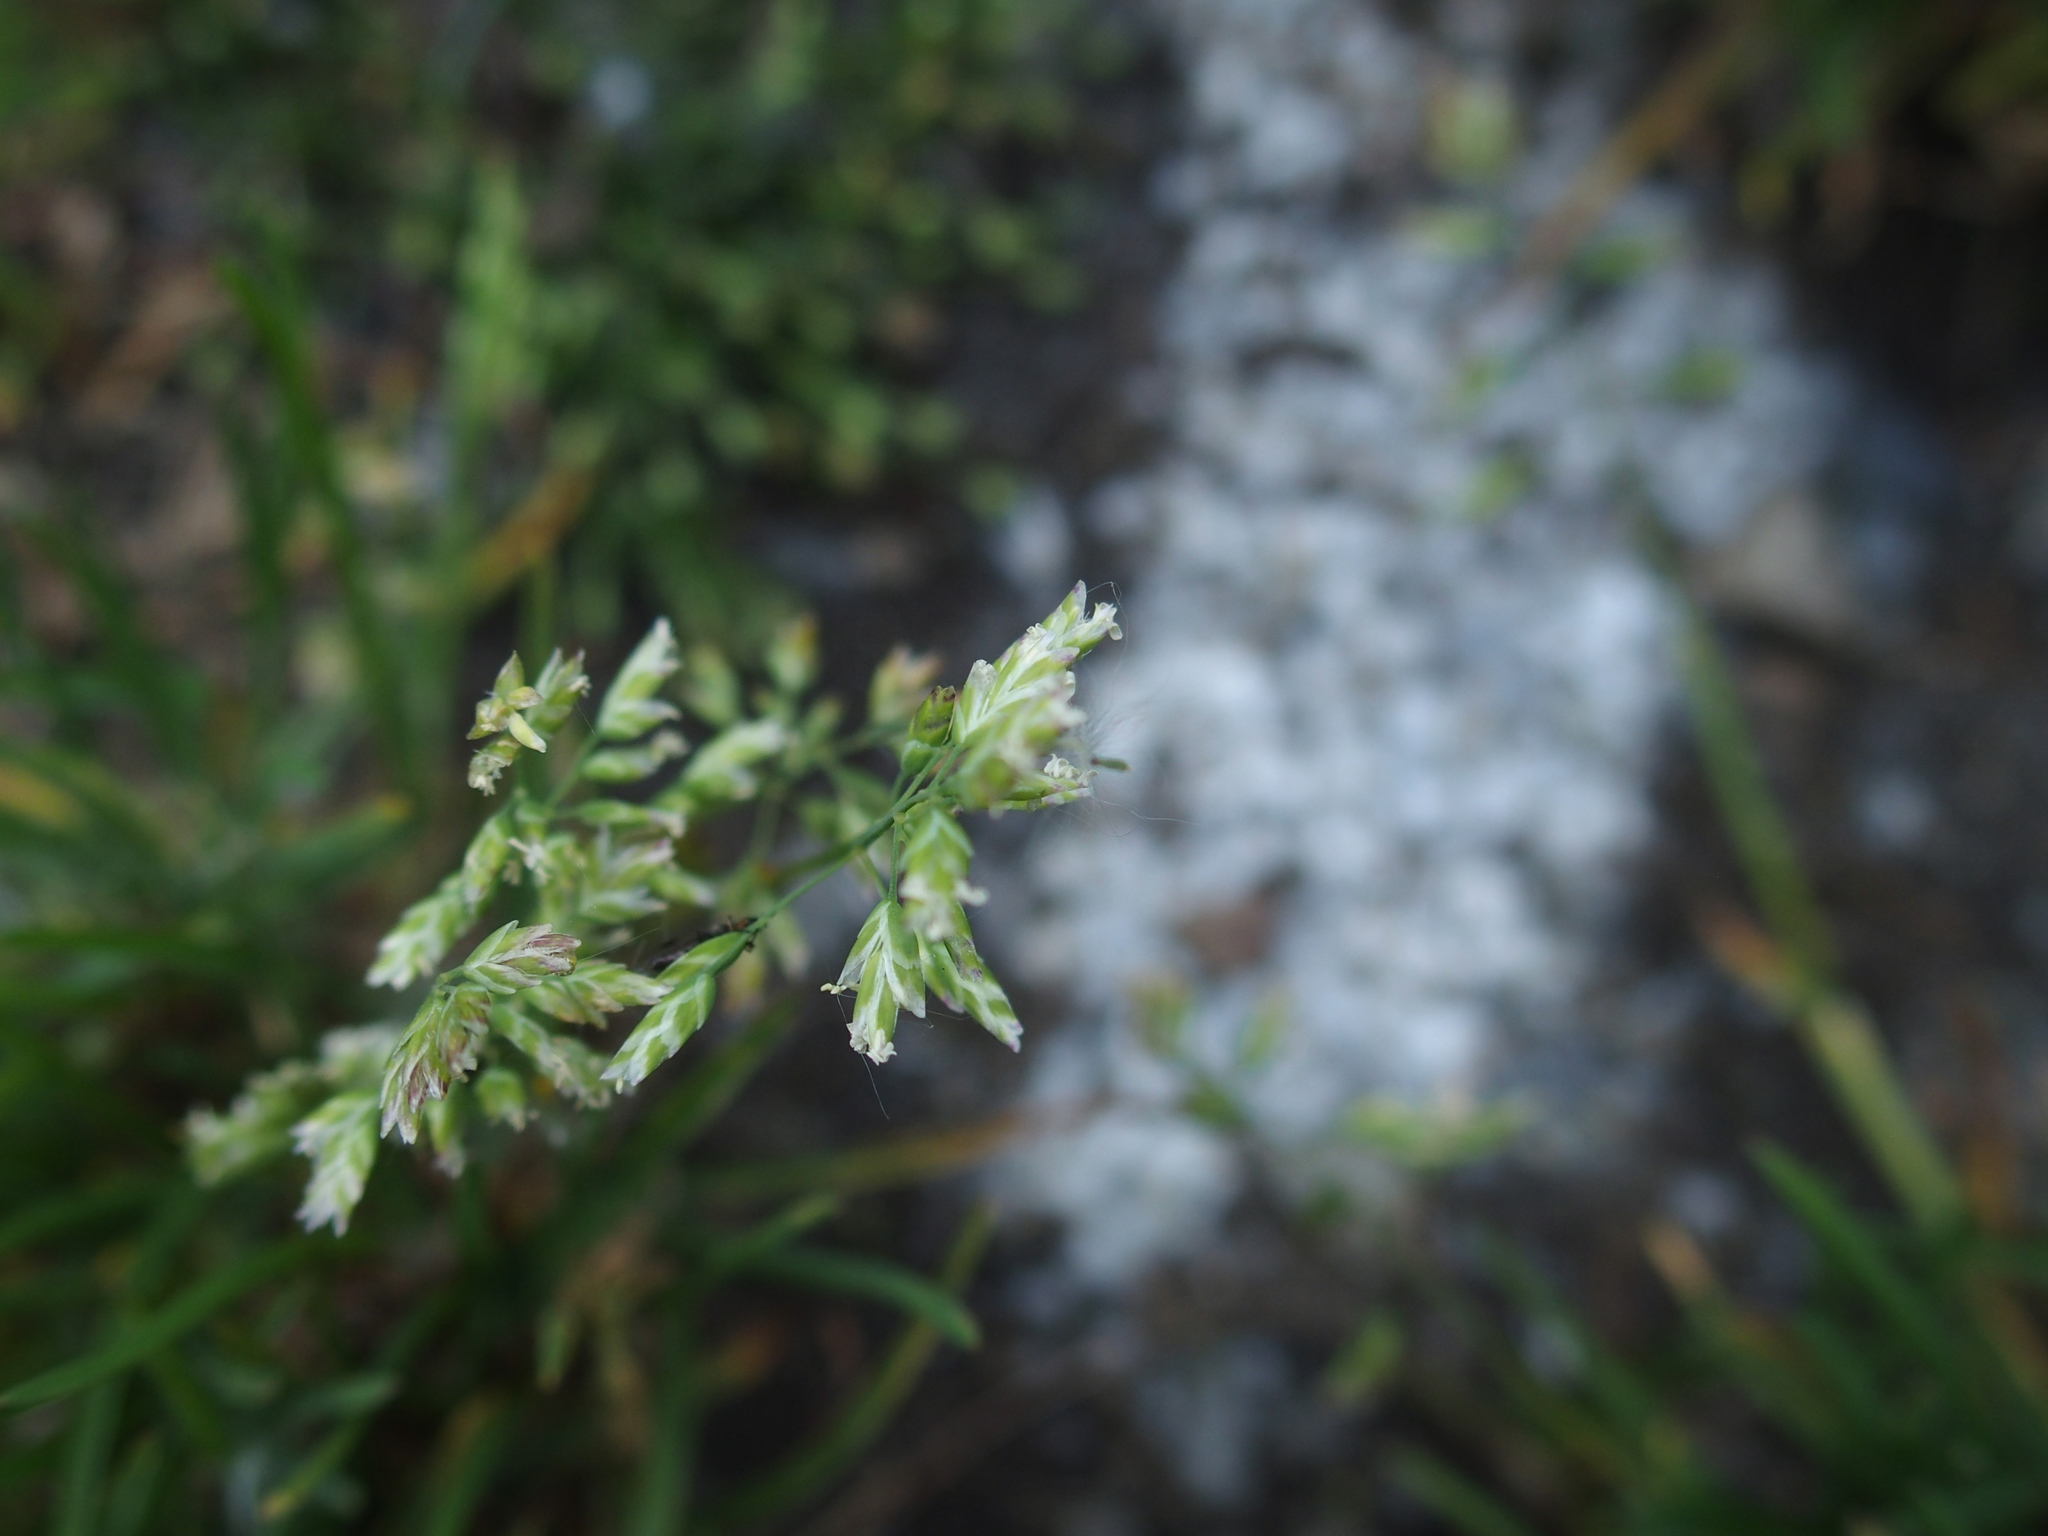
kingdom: Plantae
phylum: Tracheophyta
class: Liliopsida
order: Poales
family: Poaceae
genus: Poa
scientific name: Poa annua
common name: Annual bluegrass
